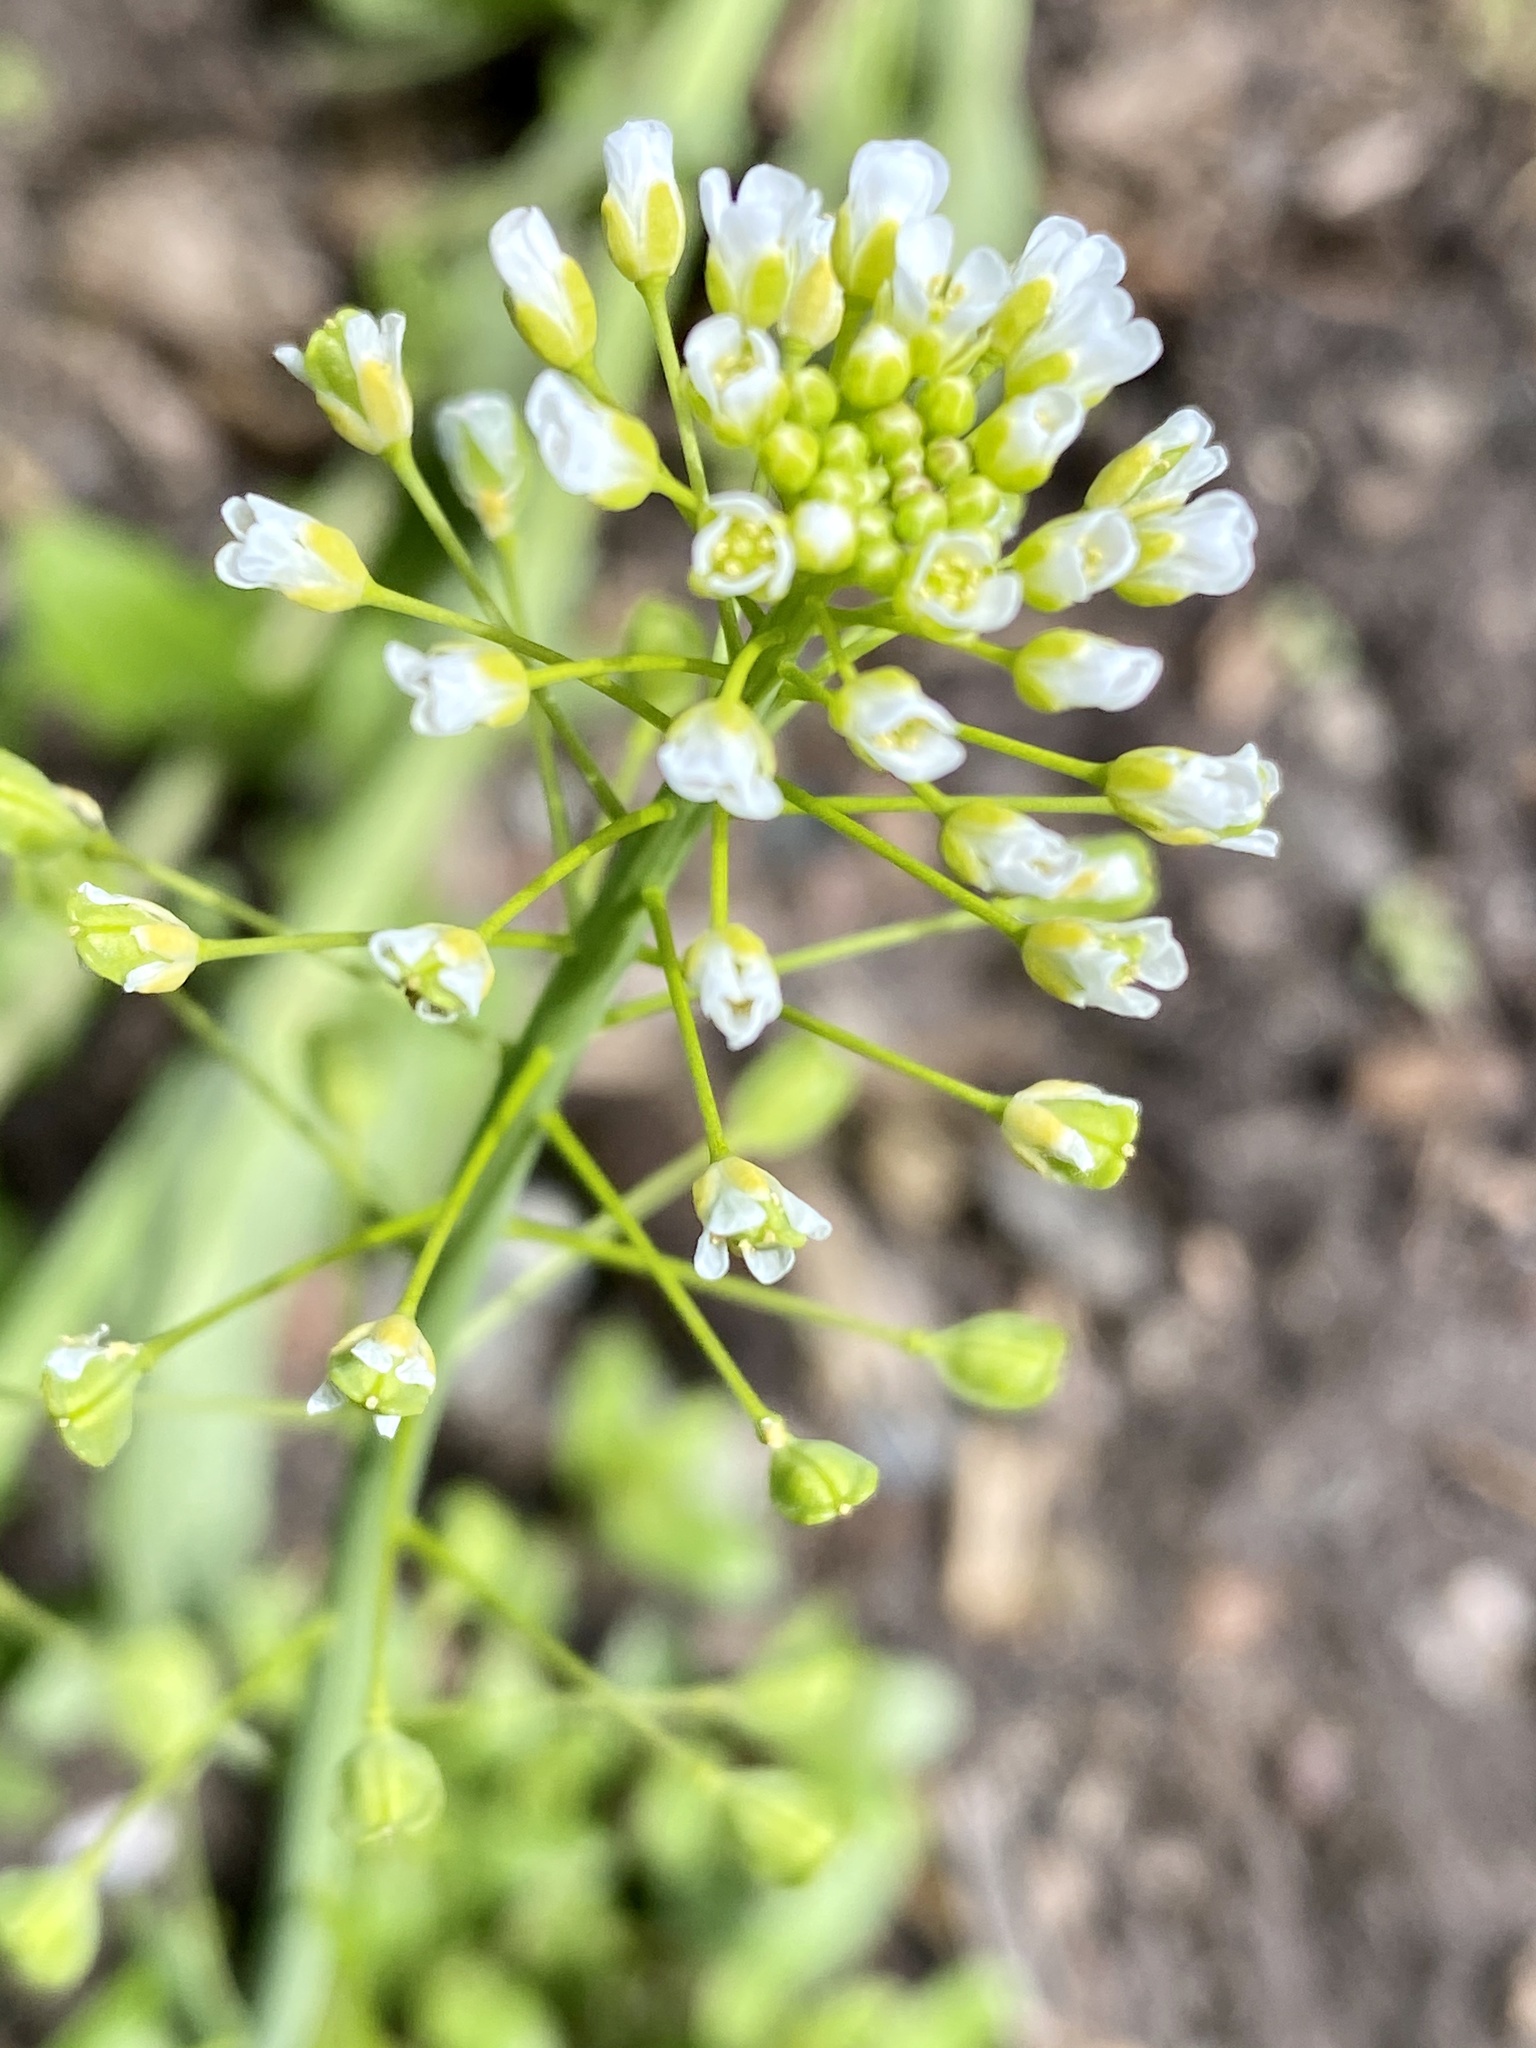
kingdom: Plantae
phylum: Tracheophyta
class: Magnoliopsida
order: Brassicales
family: Brassicaceae
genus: Mummenhoffia
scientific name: Mummenhoffia alliacea
